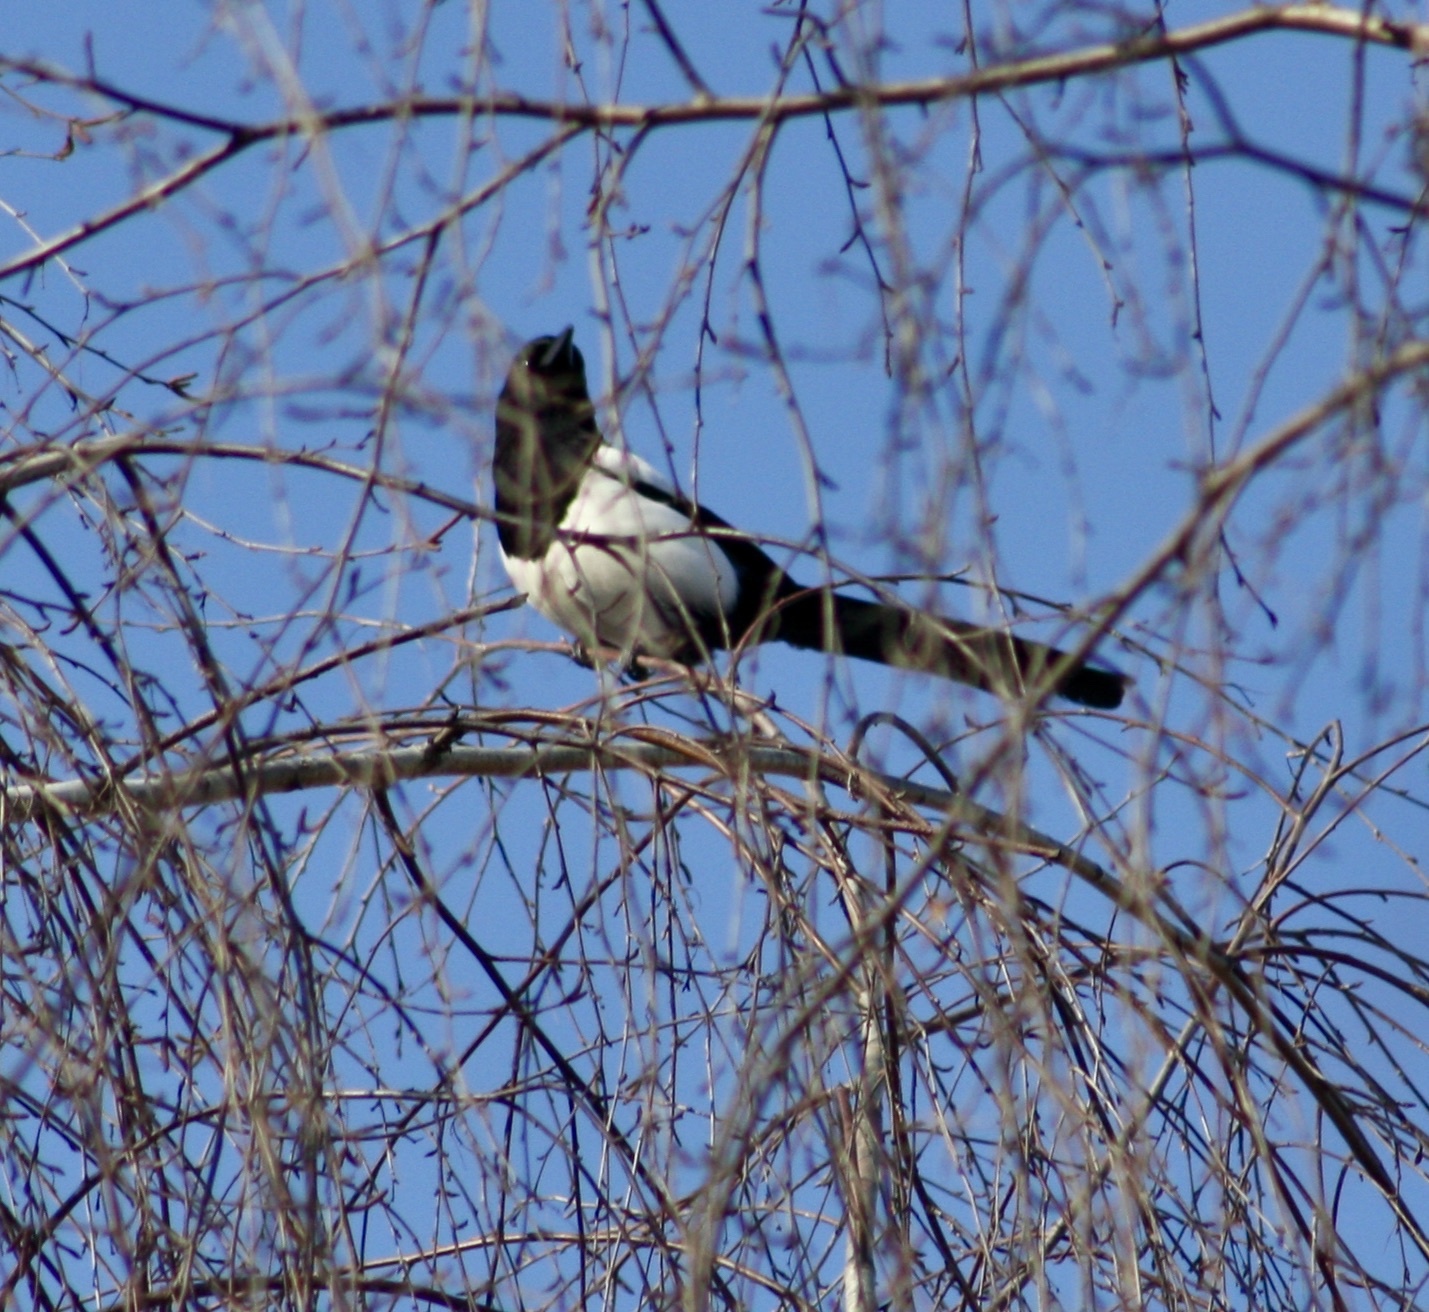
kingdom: Animalia
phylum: Chordata
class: Aves
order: Passeriformes
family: Corvidae
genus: Pica
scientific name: Pica pica
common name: Eurasian magpie
